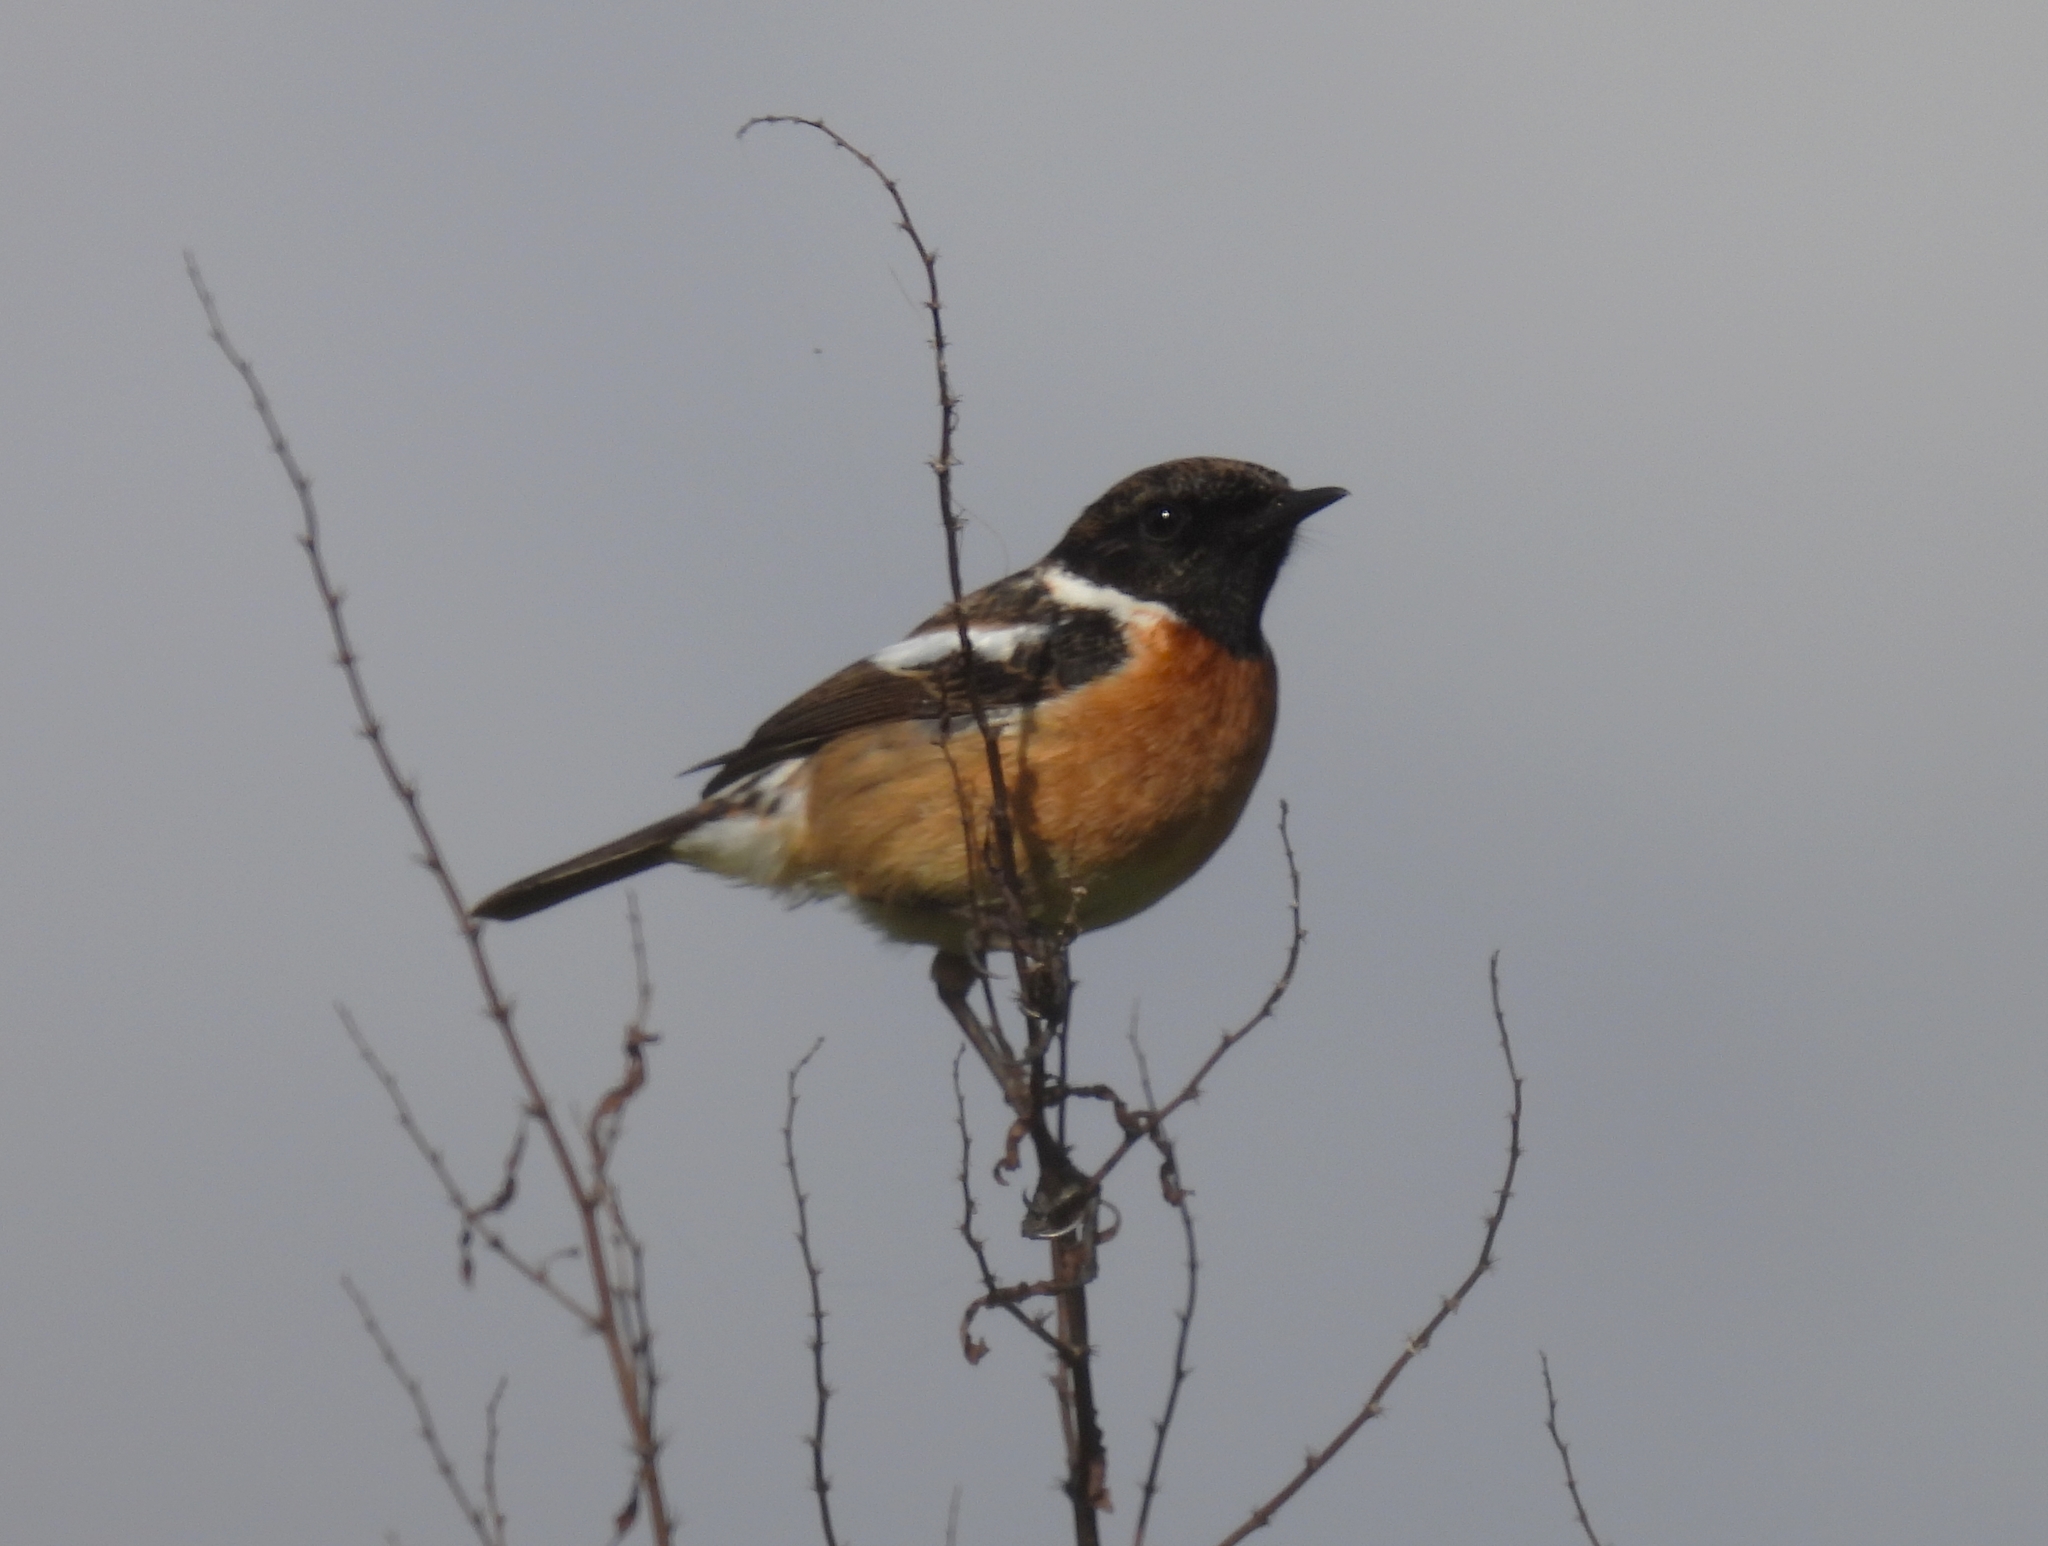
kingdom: Animalia
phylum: Chordata
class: Aves
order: Passeriformes
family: Muscicapidae
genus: Saxicola
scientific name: Saxicola rubicola
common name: European stonechat
